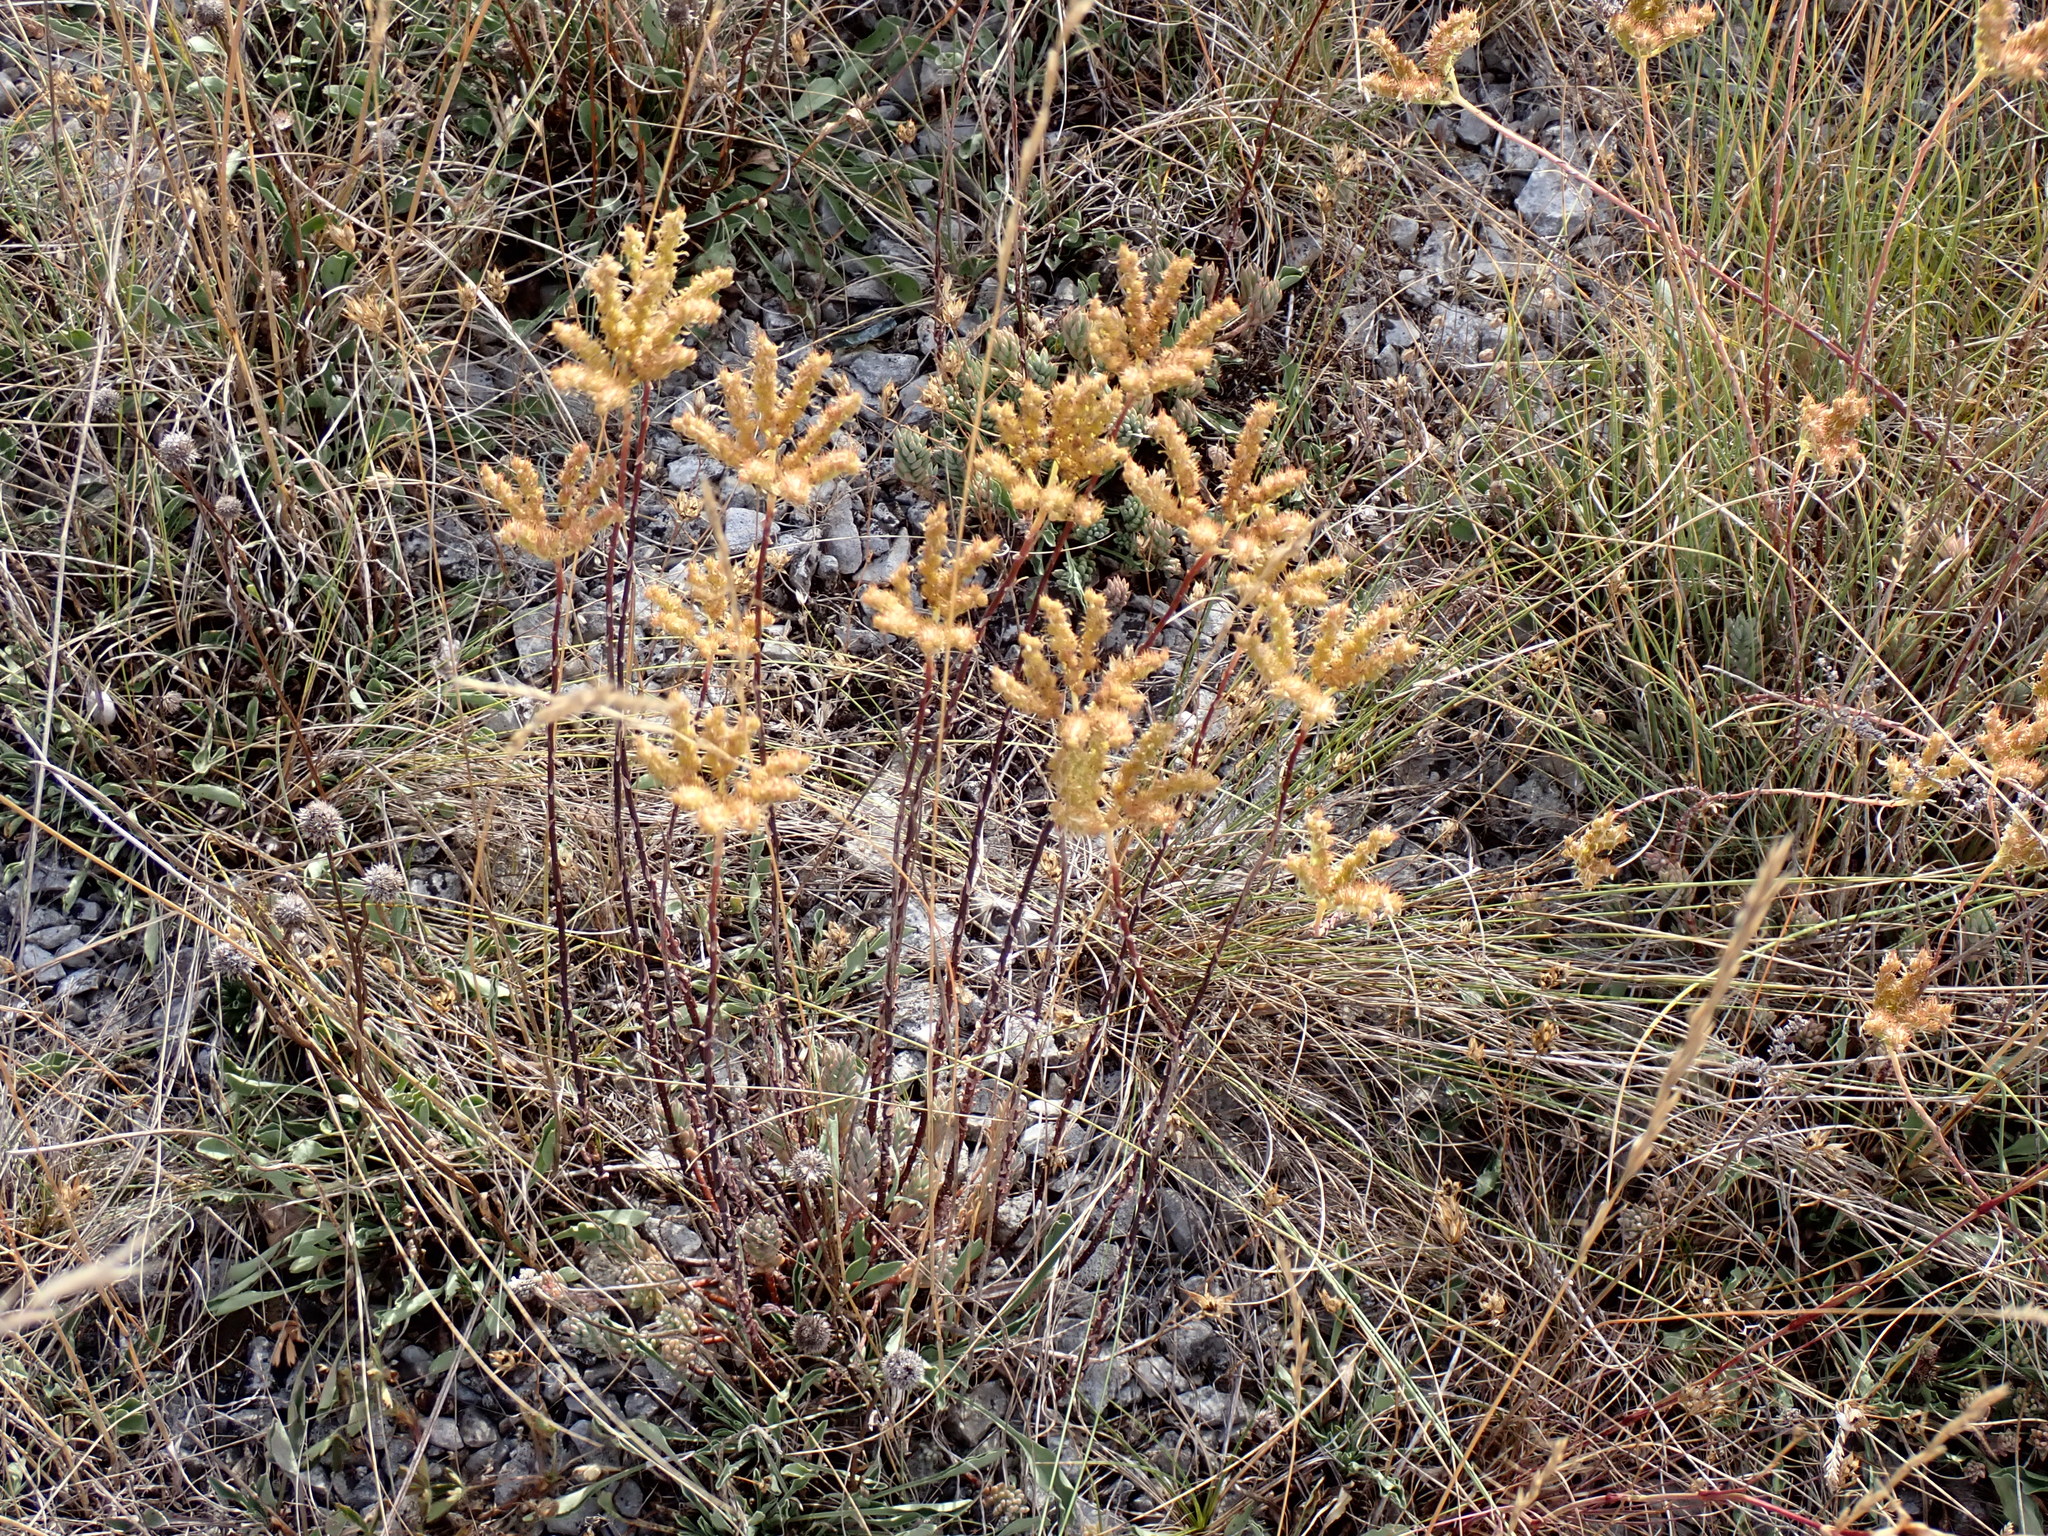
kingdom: Plantae
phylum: Tracheophyta
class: Magnoliopsida
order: Saxifragales
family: Crassulaceae
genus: Petrosedum
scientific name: Petrosedum sediforme
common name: Pale stonecrop
